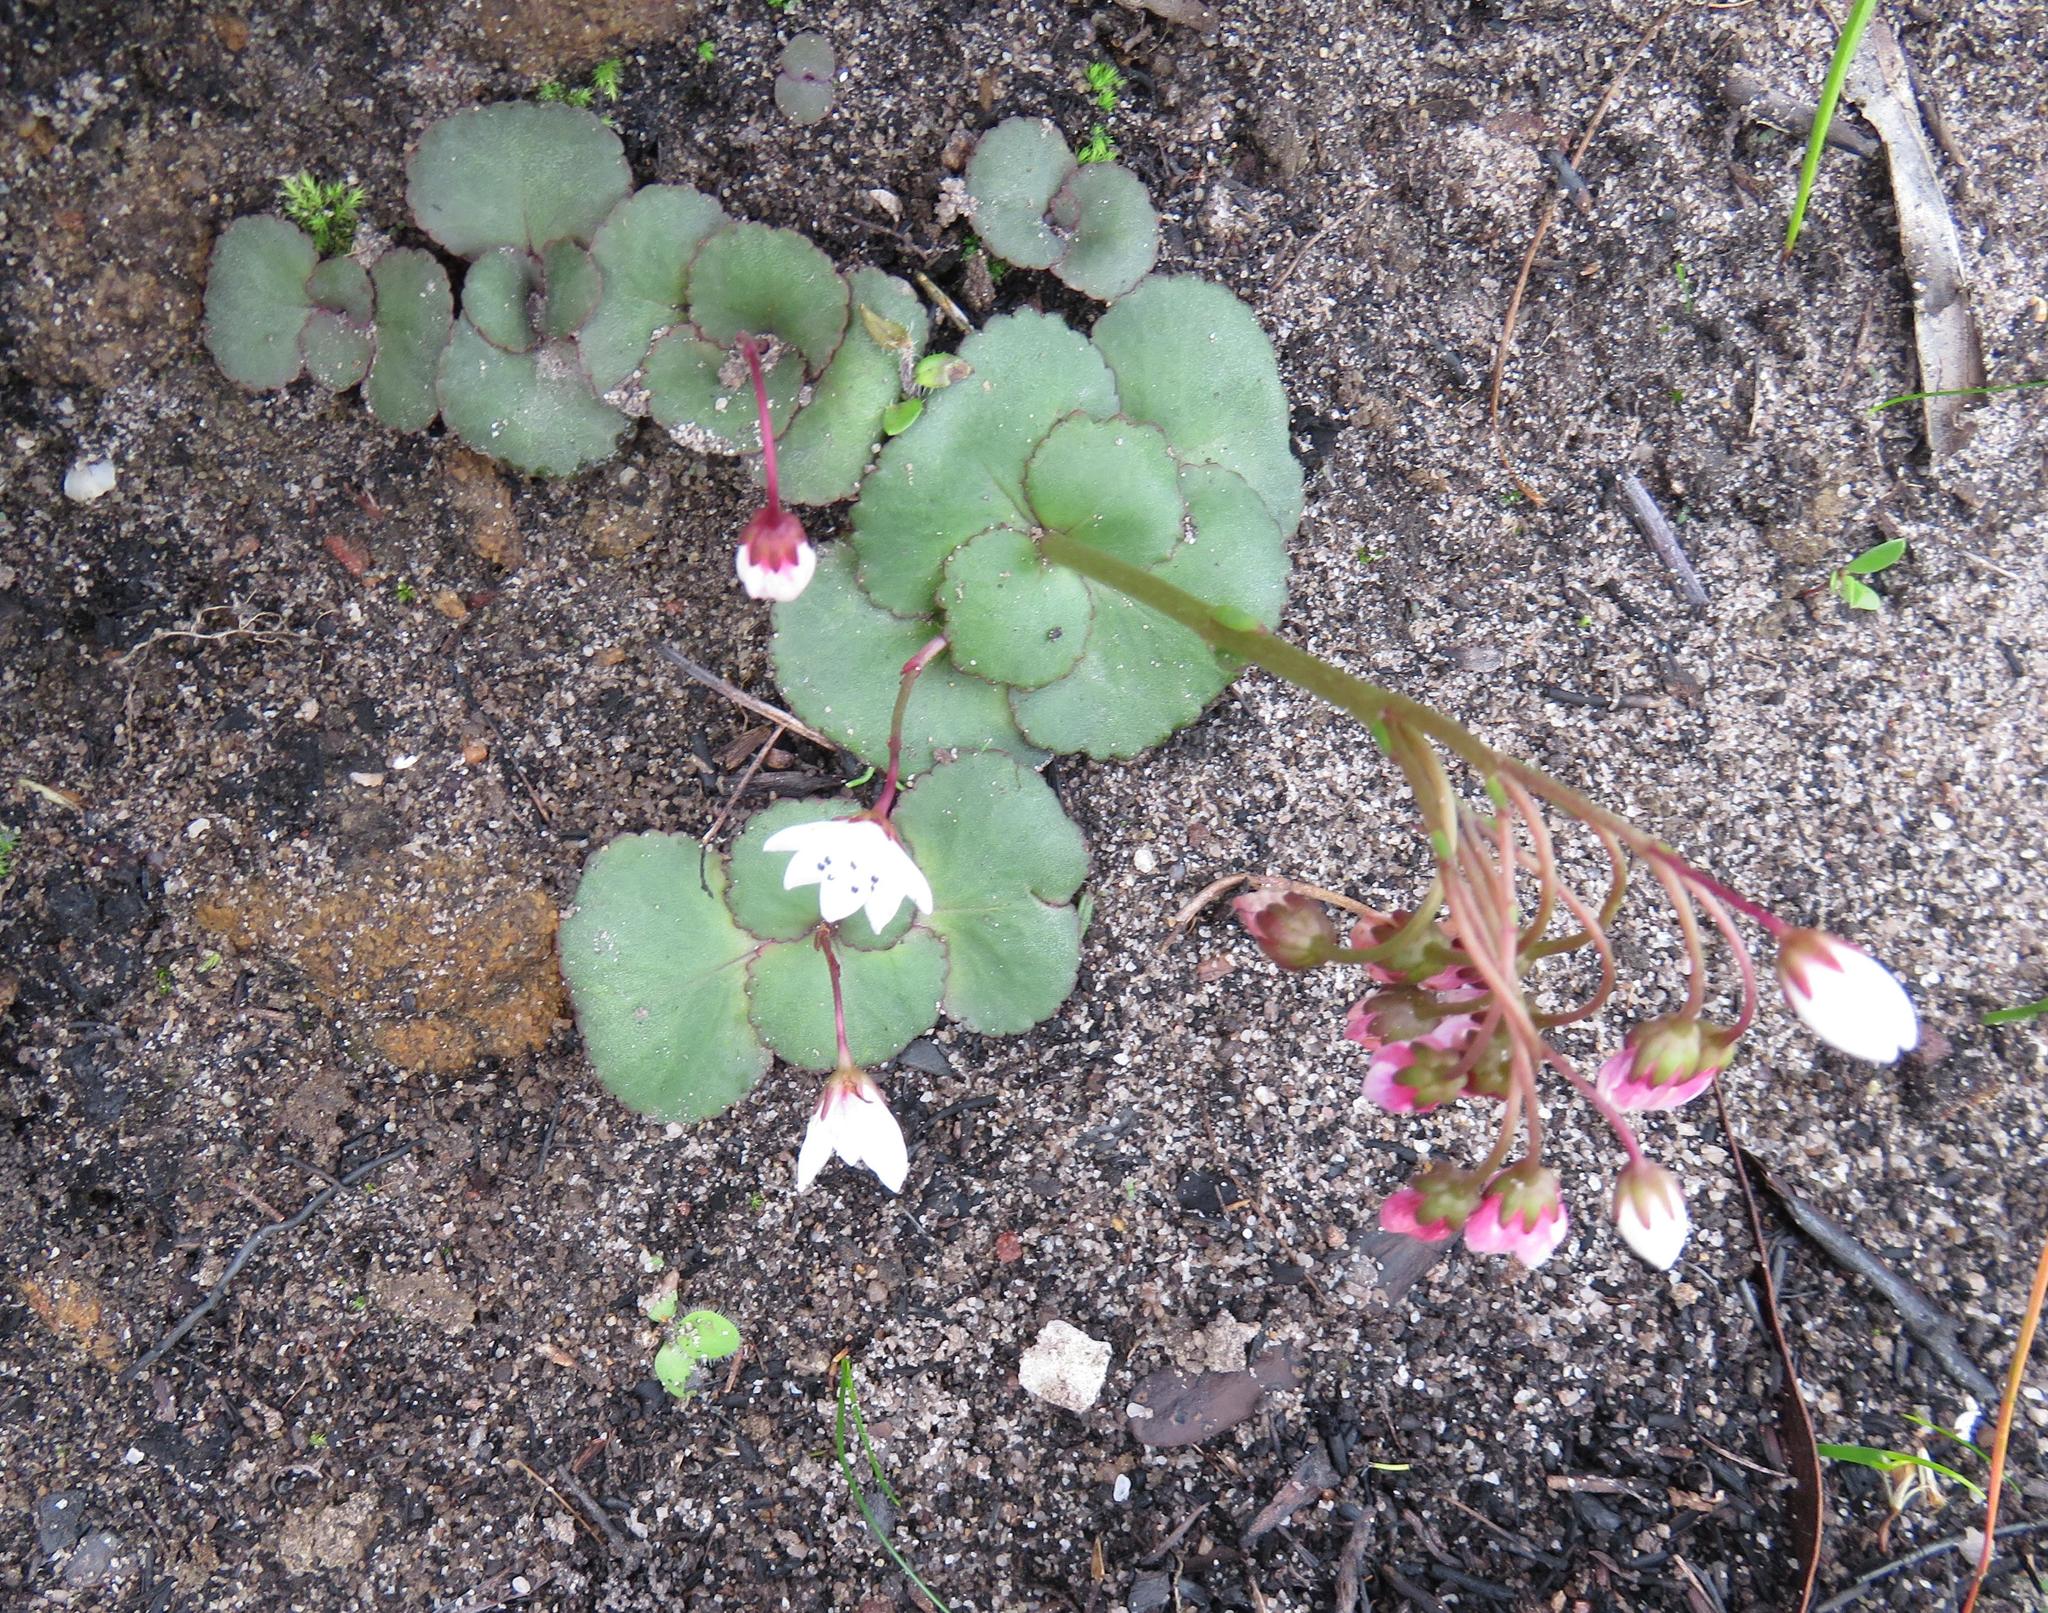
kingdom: Plantae
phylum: Tracheophyta
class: Magnoliopsida
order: Saxifragales
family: Crassulaceae
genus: Crassula
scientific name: Crassula capensis
